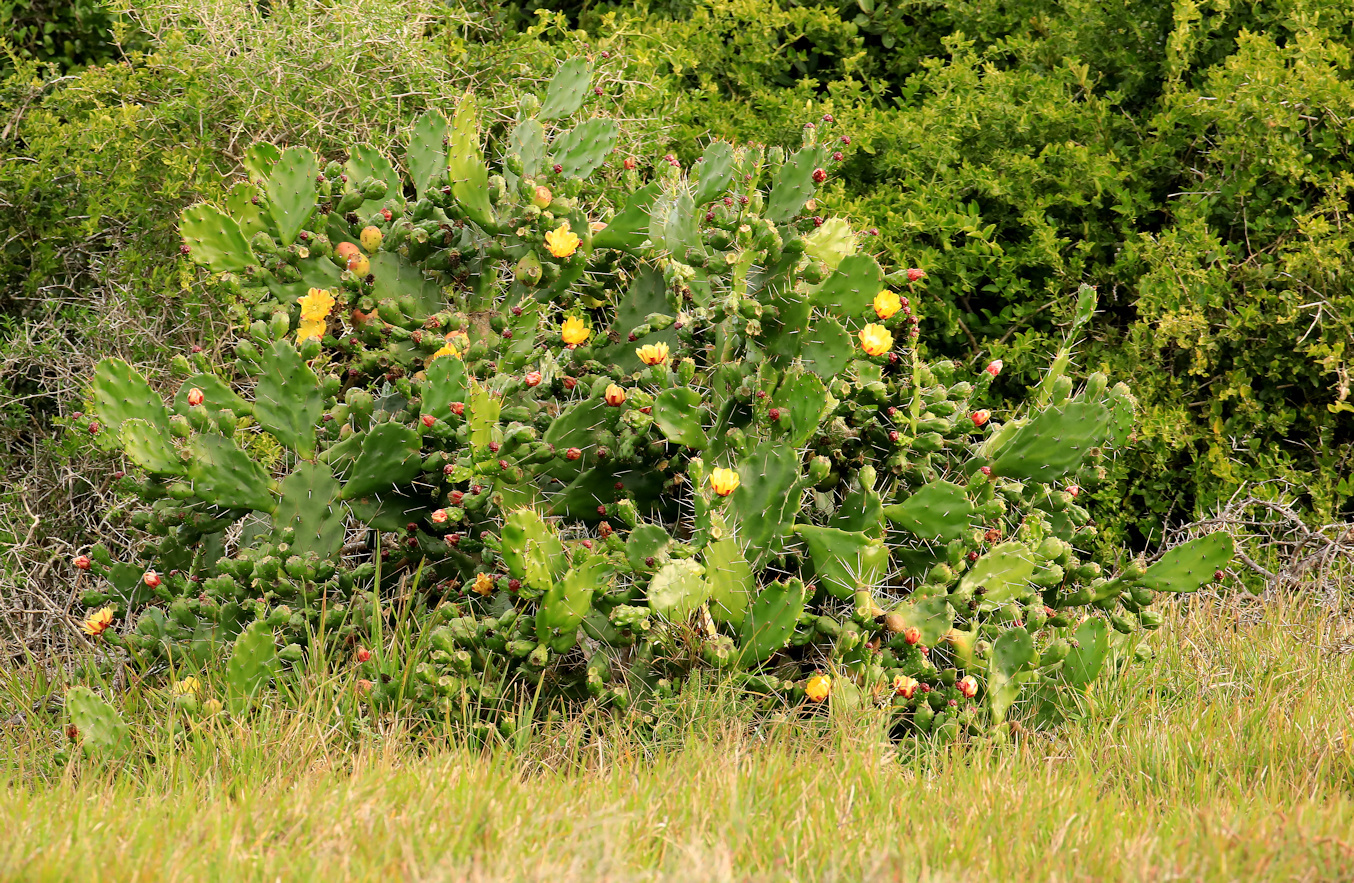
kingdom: Plantae
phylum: Tracheophyta
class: Magnoliopsida
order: Caryophyllales
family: Cactaceae
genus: Opuntia
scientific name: Opuntia monacantha
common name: Common pricklypear
